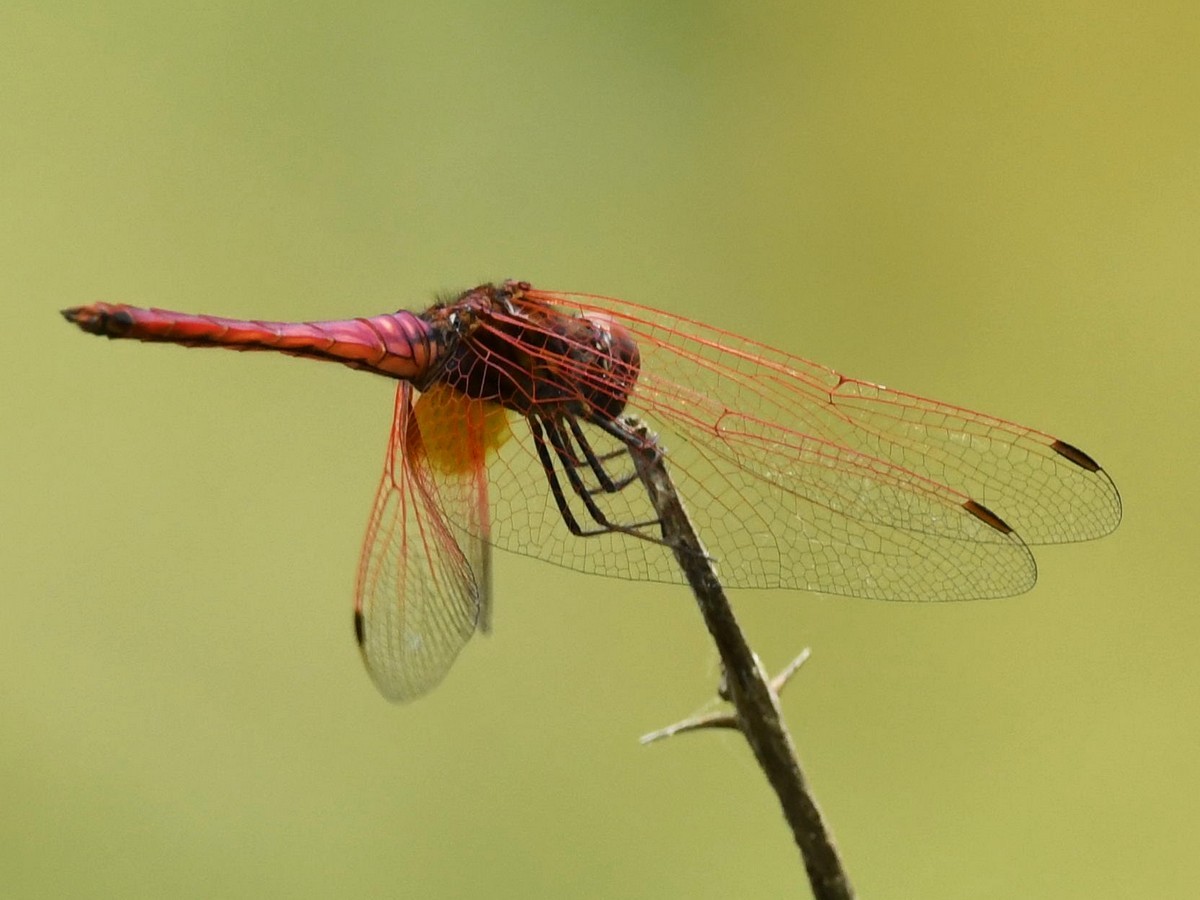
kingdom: Animalia
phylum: Arthropoda
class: Insecta
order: Odonata
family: Libellulidae
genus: Trithemis
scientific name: Trithemis aurora
